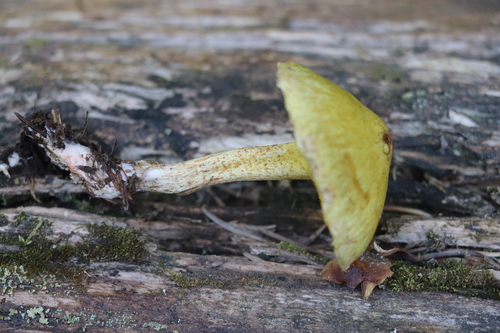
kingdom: Fungi
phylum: Basidiomycota
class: Agaricomycetes
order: Boletales
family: Suillaceae
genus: Suillus
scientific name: Suillus americanus
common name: Chicken fat mushroom
